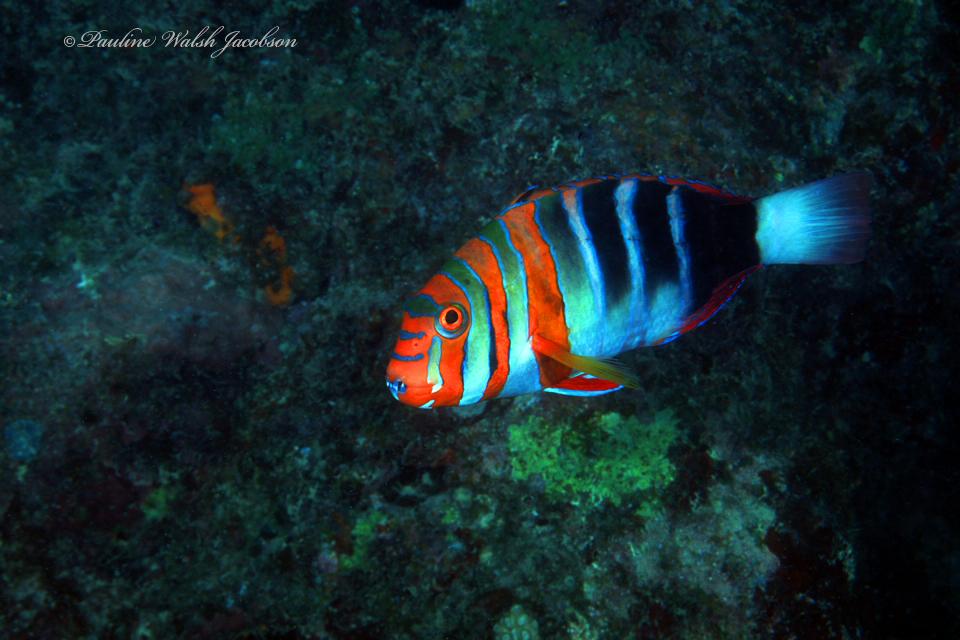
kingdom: Animalia
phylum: Chordata
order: Perciformes
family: Labridae
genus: Choerodon
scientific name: Choerodon fasciatus
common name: Harlequin tuskfish
